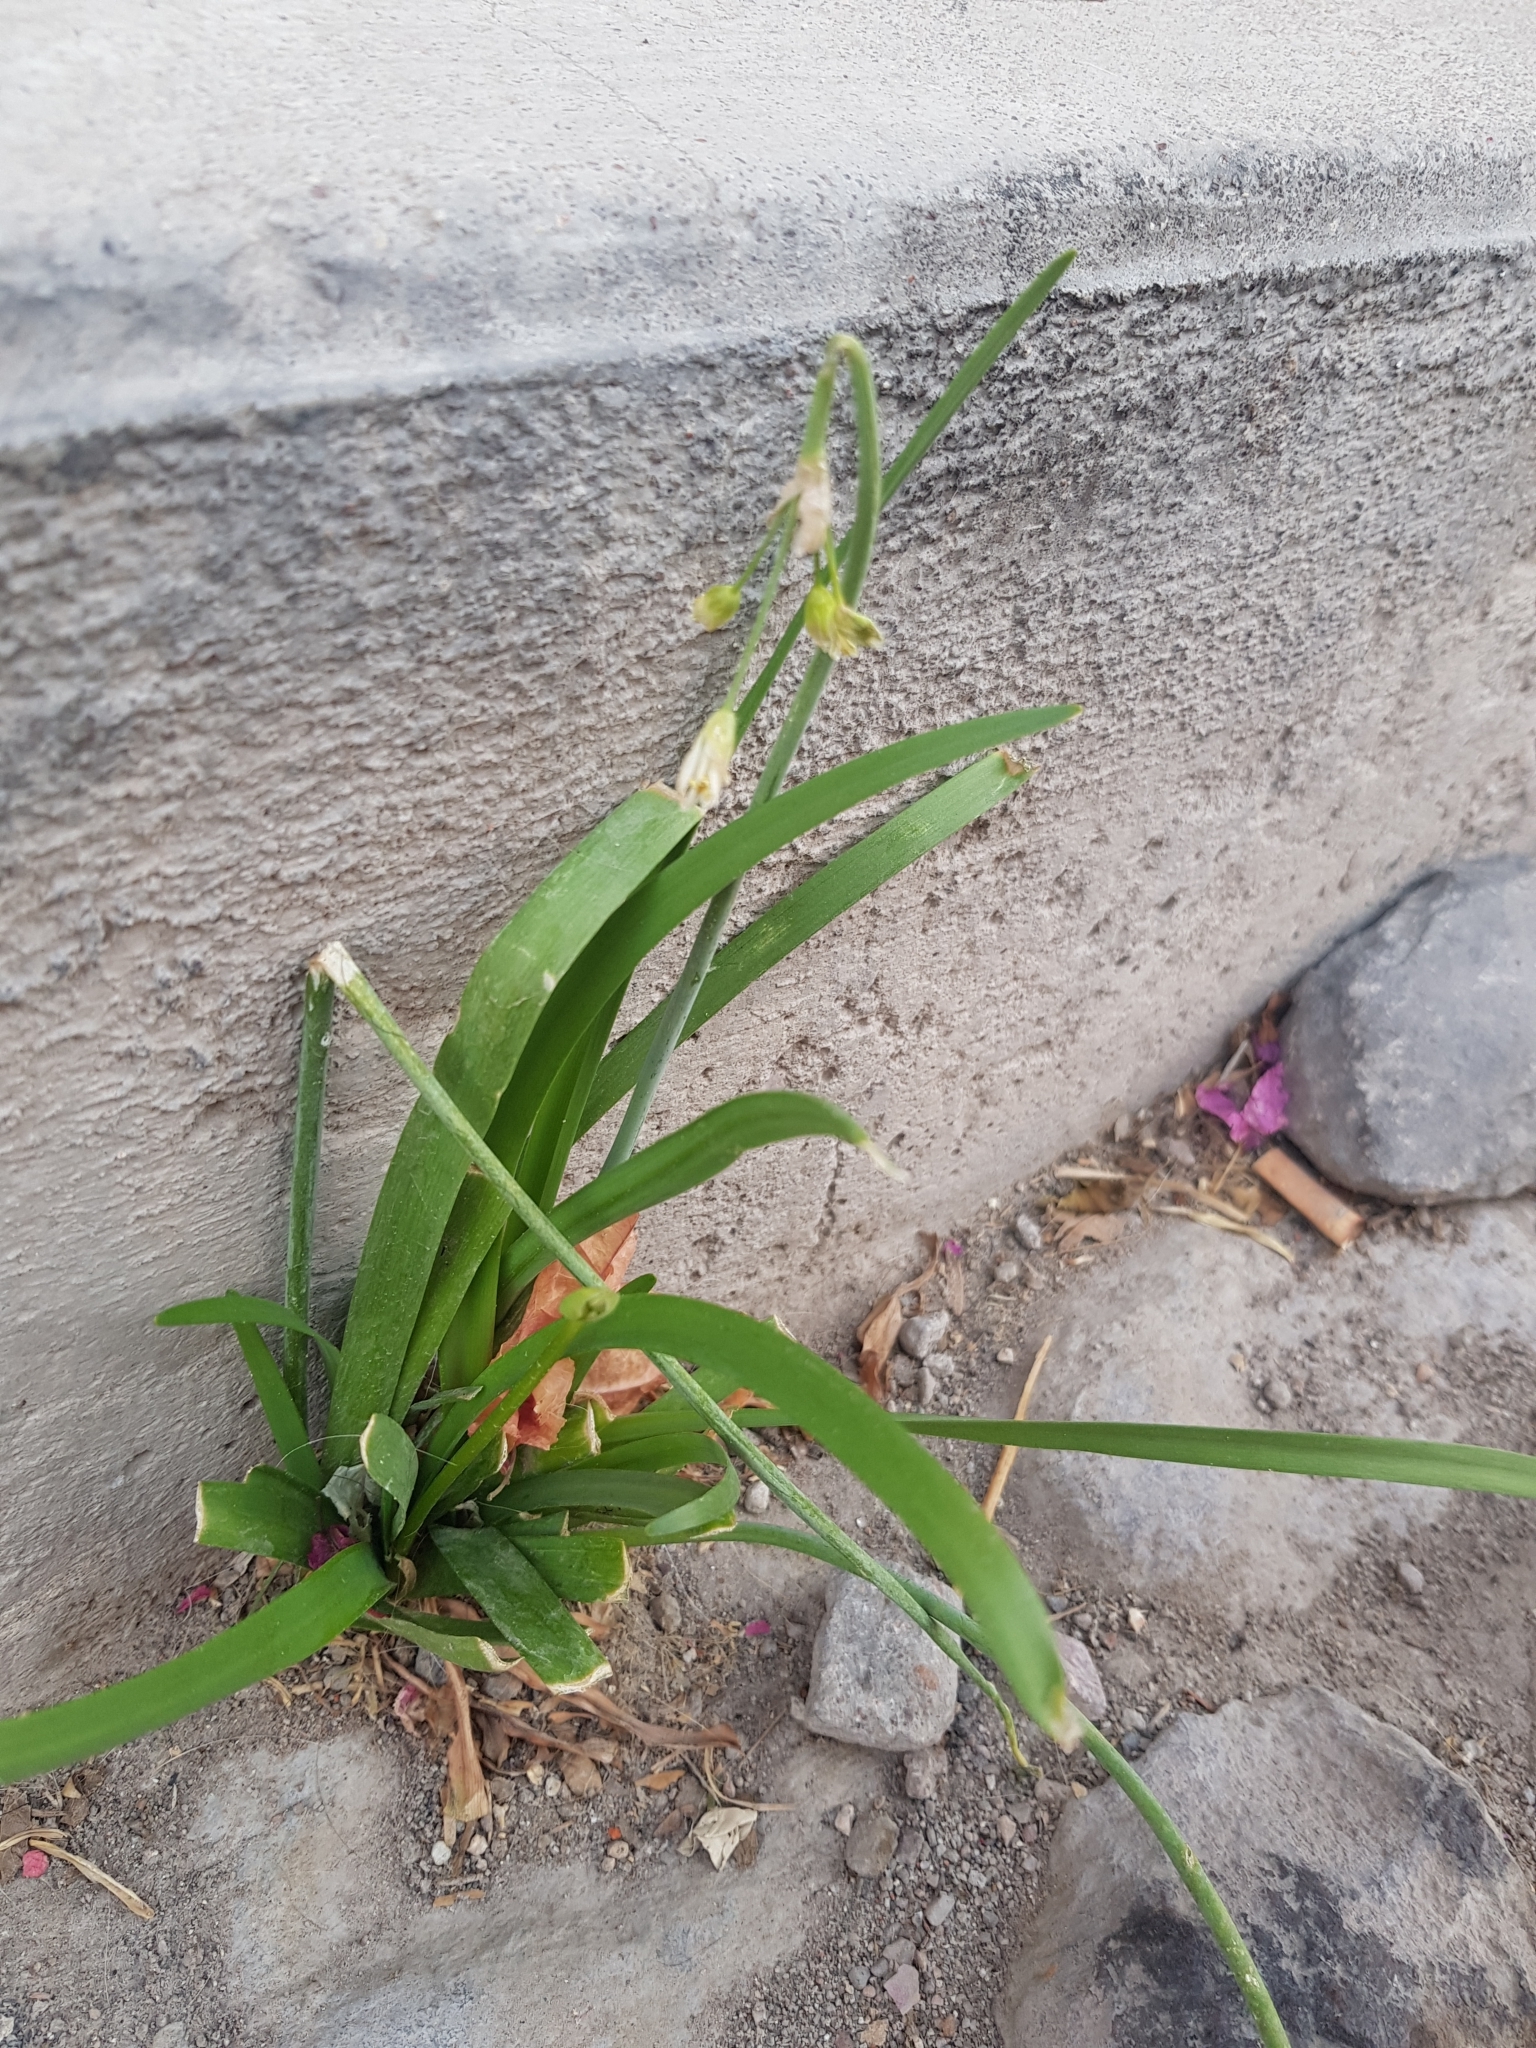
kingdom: Plantae
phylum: Tracheophyta
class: Liliopsida
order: Asparagales
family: Amaryllidaceae
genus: Nothoscordum
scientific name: Nothoscordum gracile
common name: Slender false garlic
